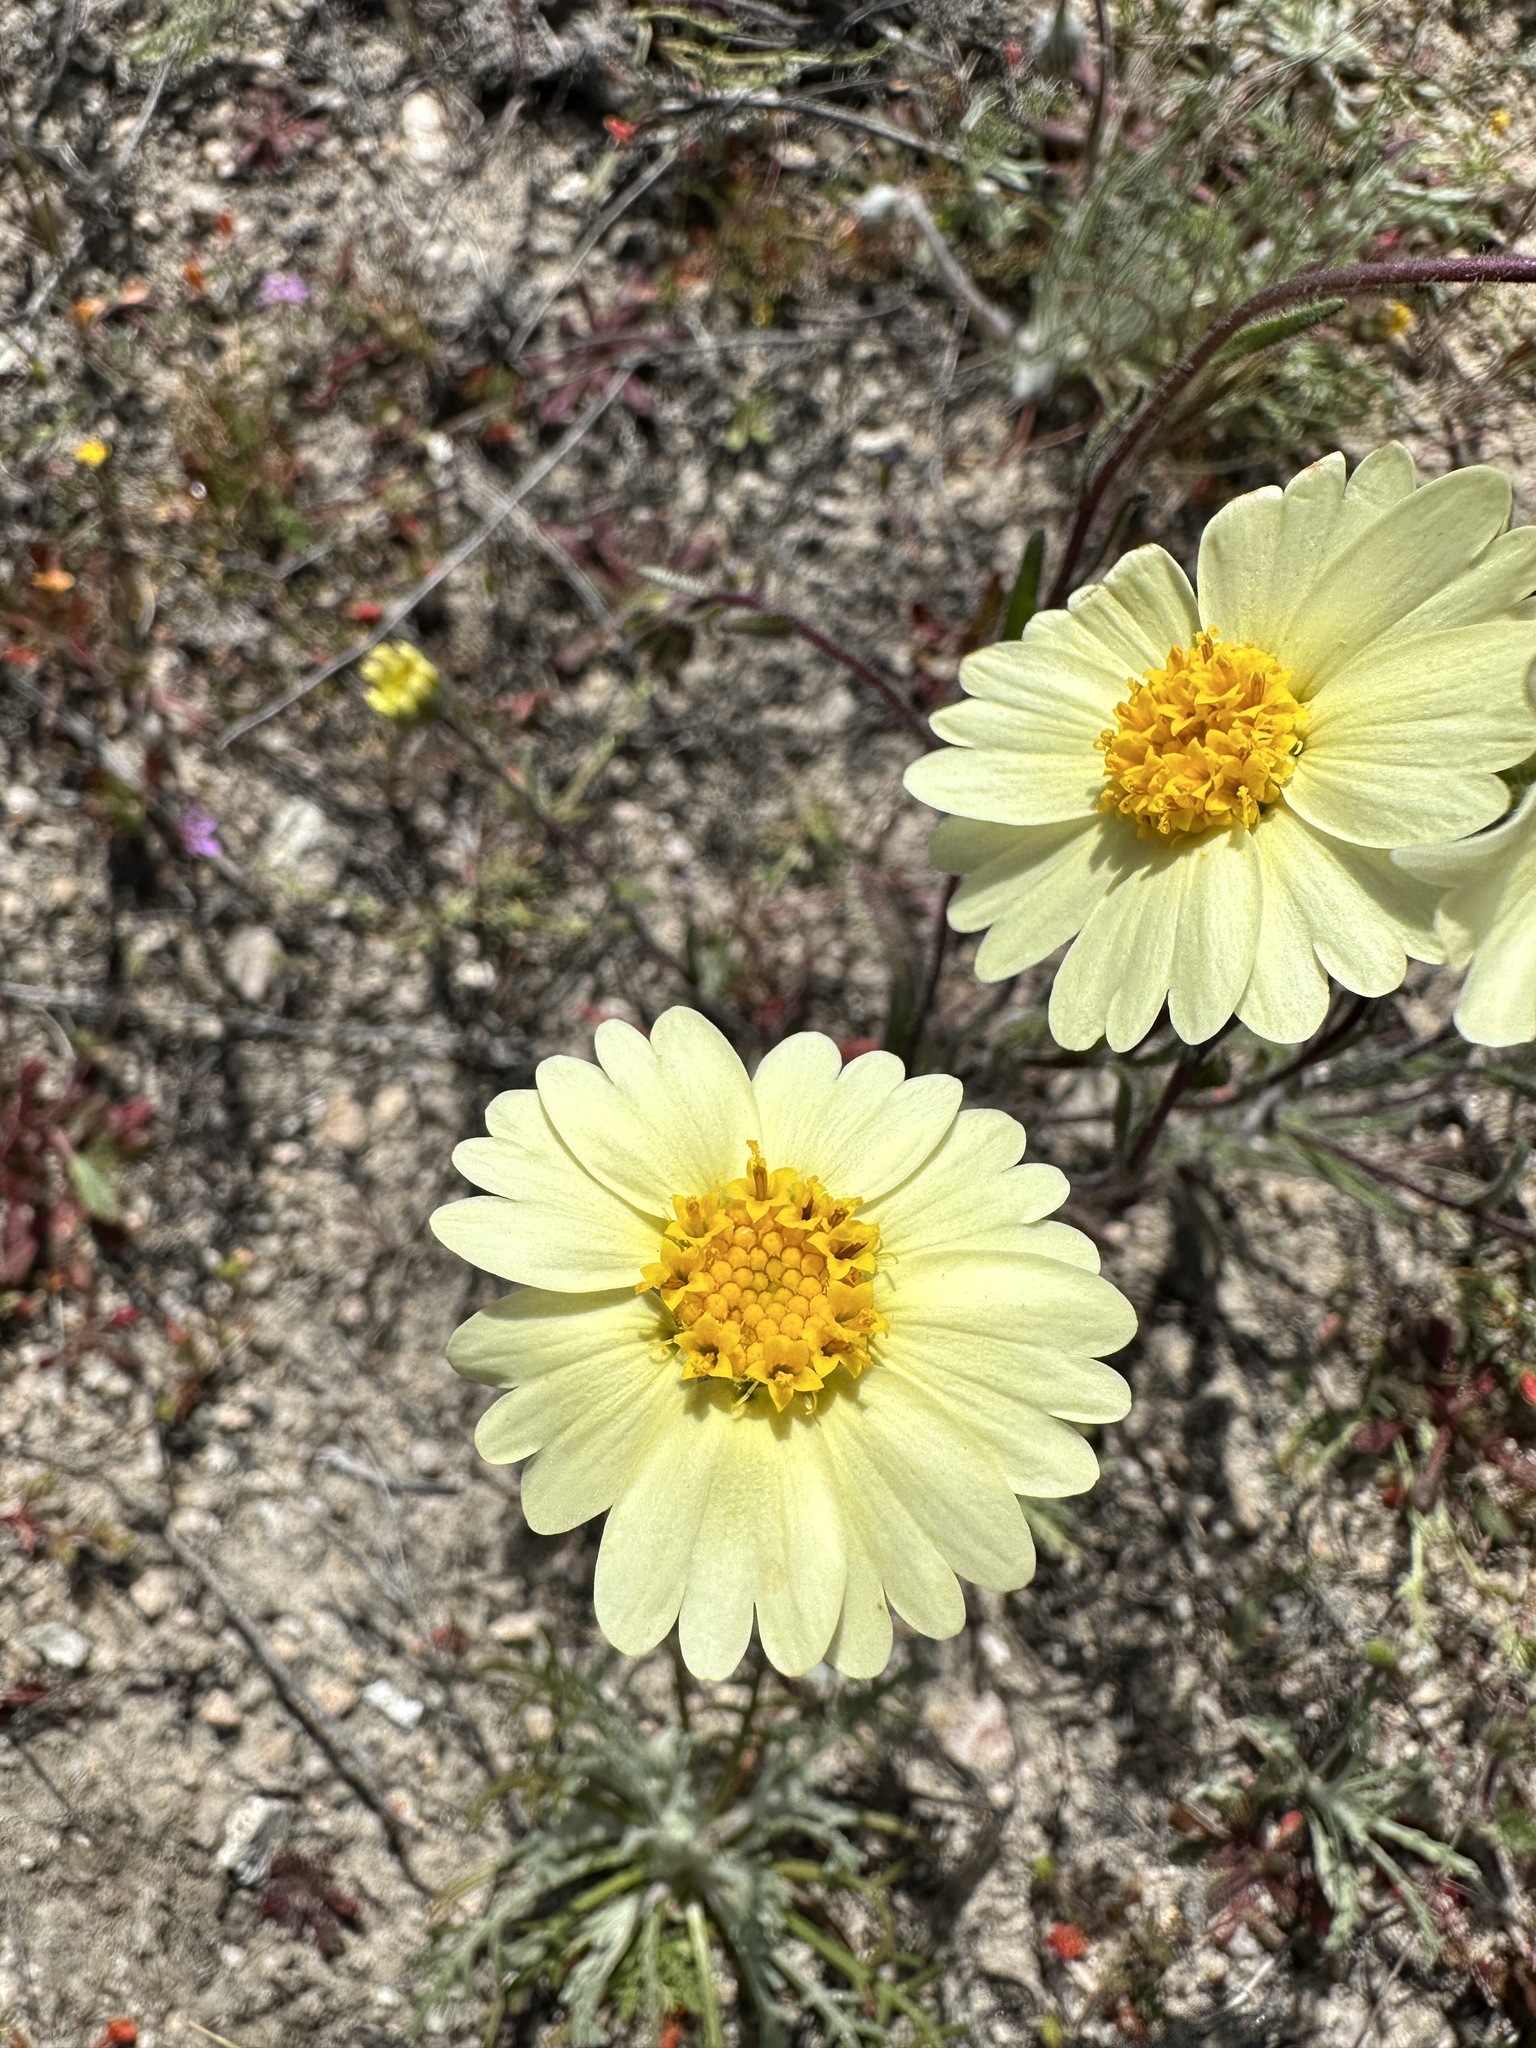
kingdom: Plantae
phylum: Tracheophyta
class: Magnoliopsida
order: Asterales
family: Asteraceae
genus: Layia
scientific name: Layia glandulosa
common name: White layia
